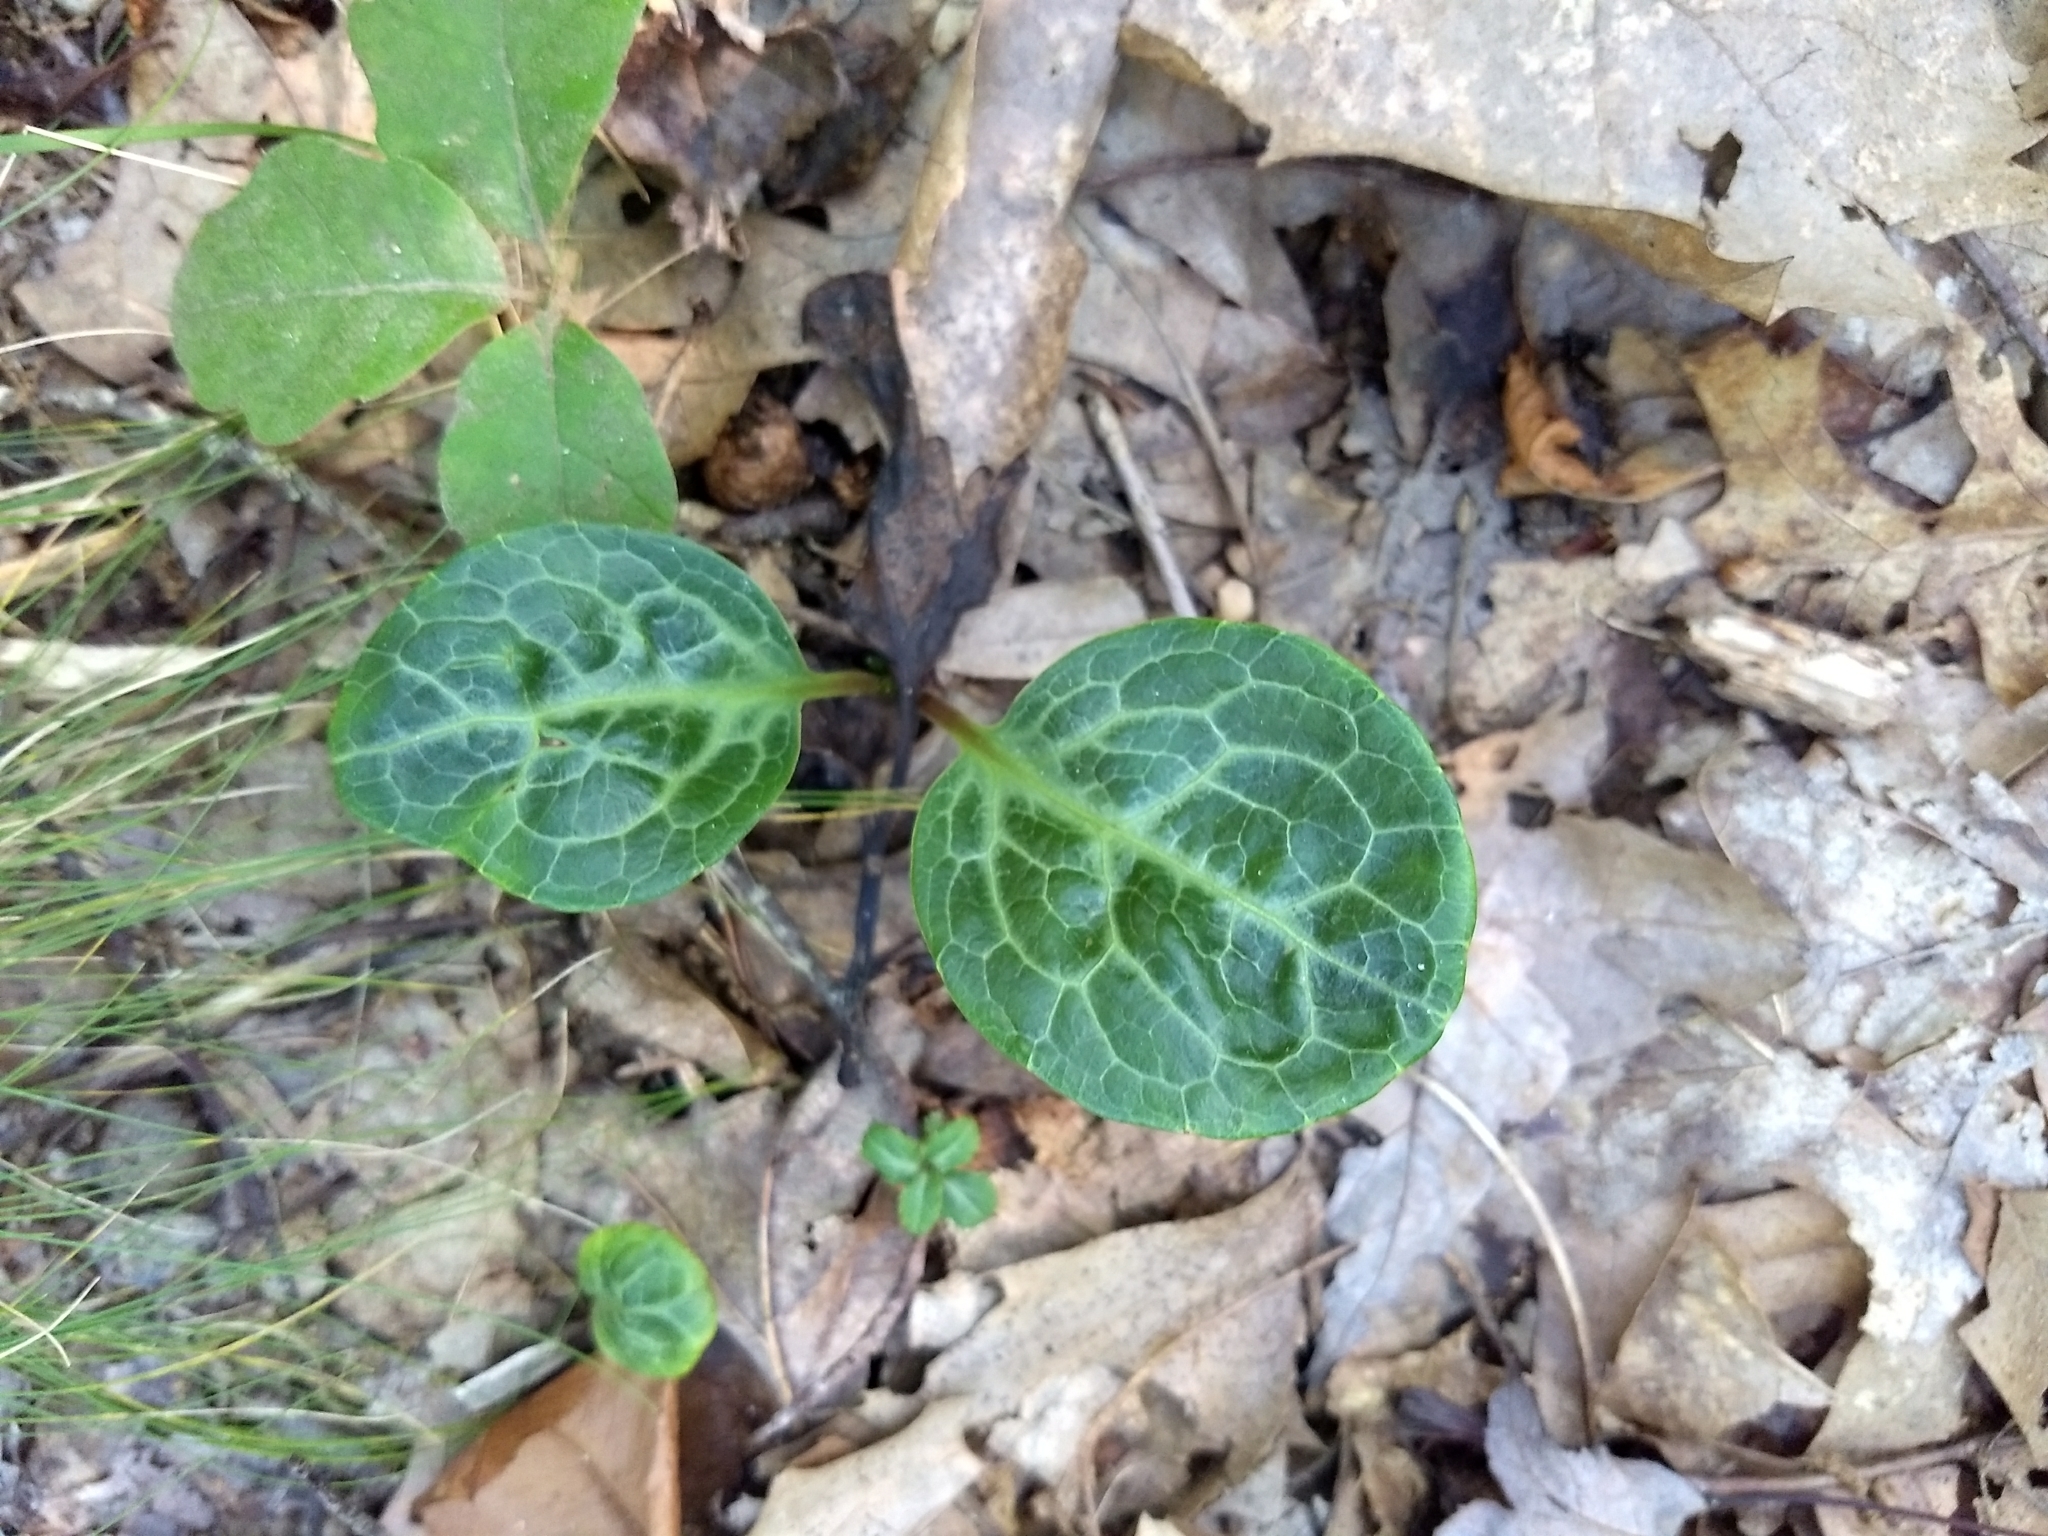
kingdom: Plantae
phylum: Tracheophyta
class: Magnoliopsida
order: Ericales
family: Ericaceae
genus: Pyrola
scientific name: Pyrola americana
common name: American wintergreen
